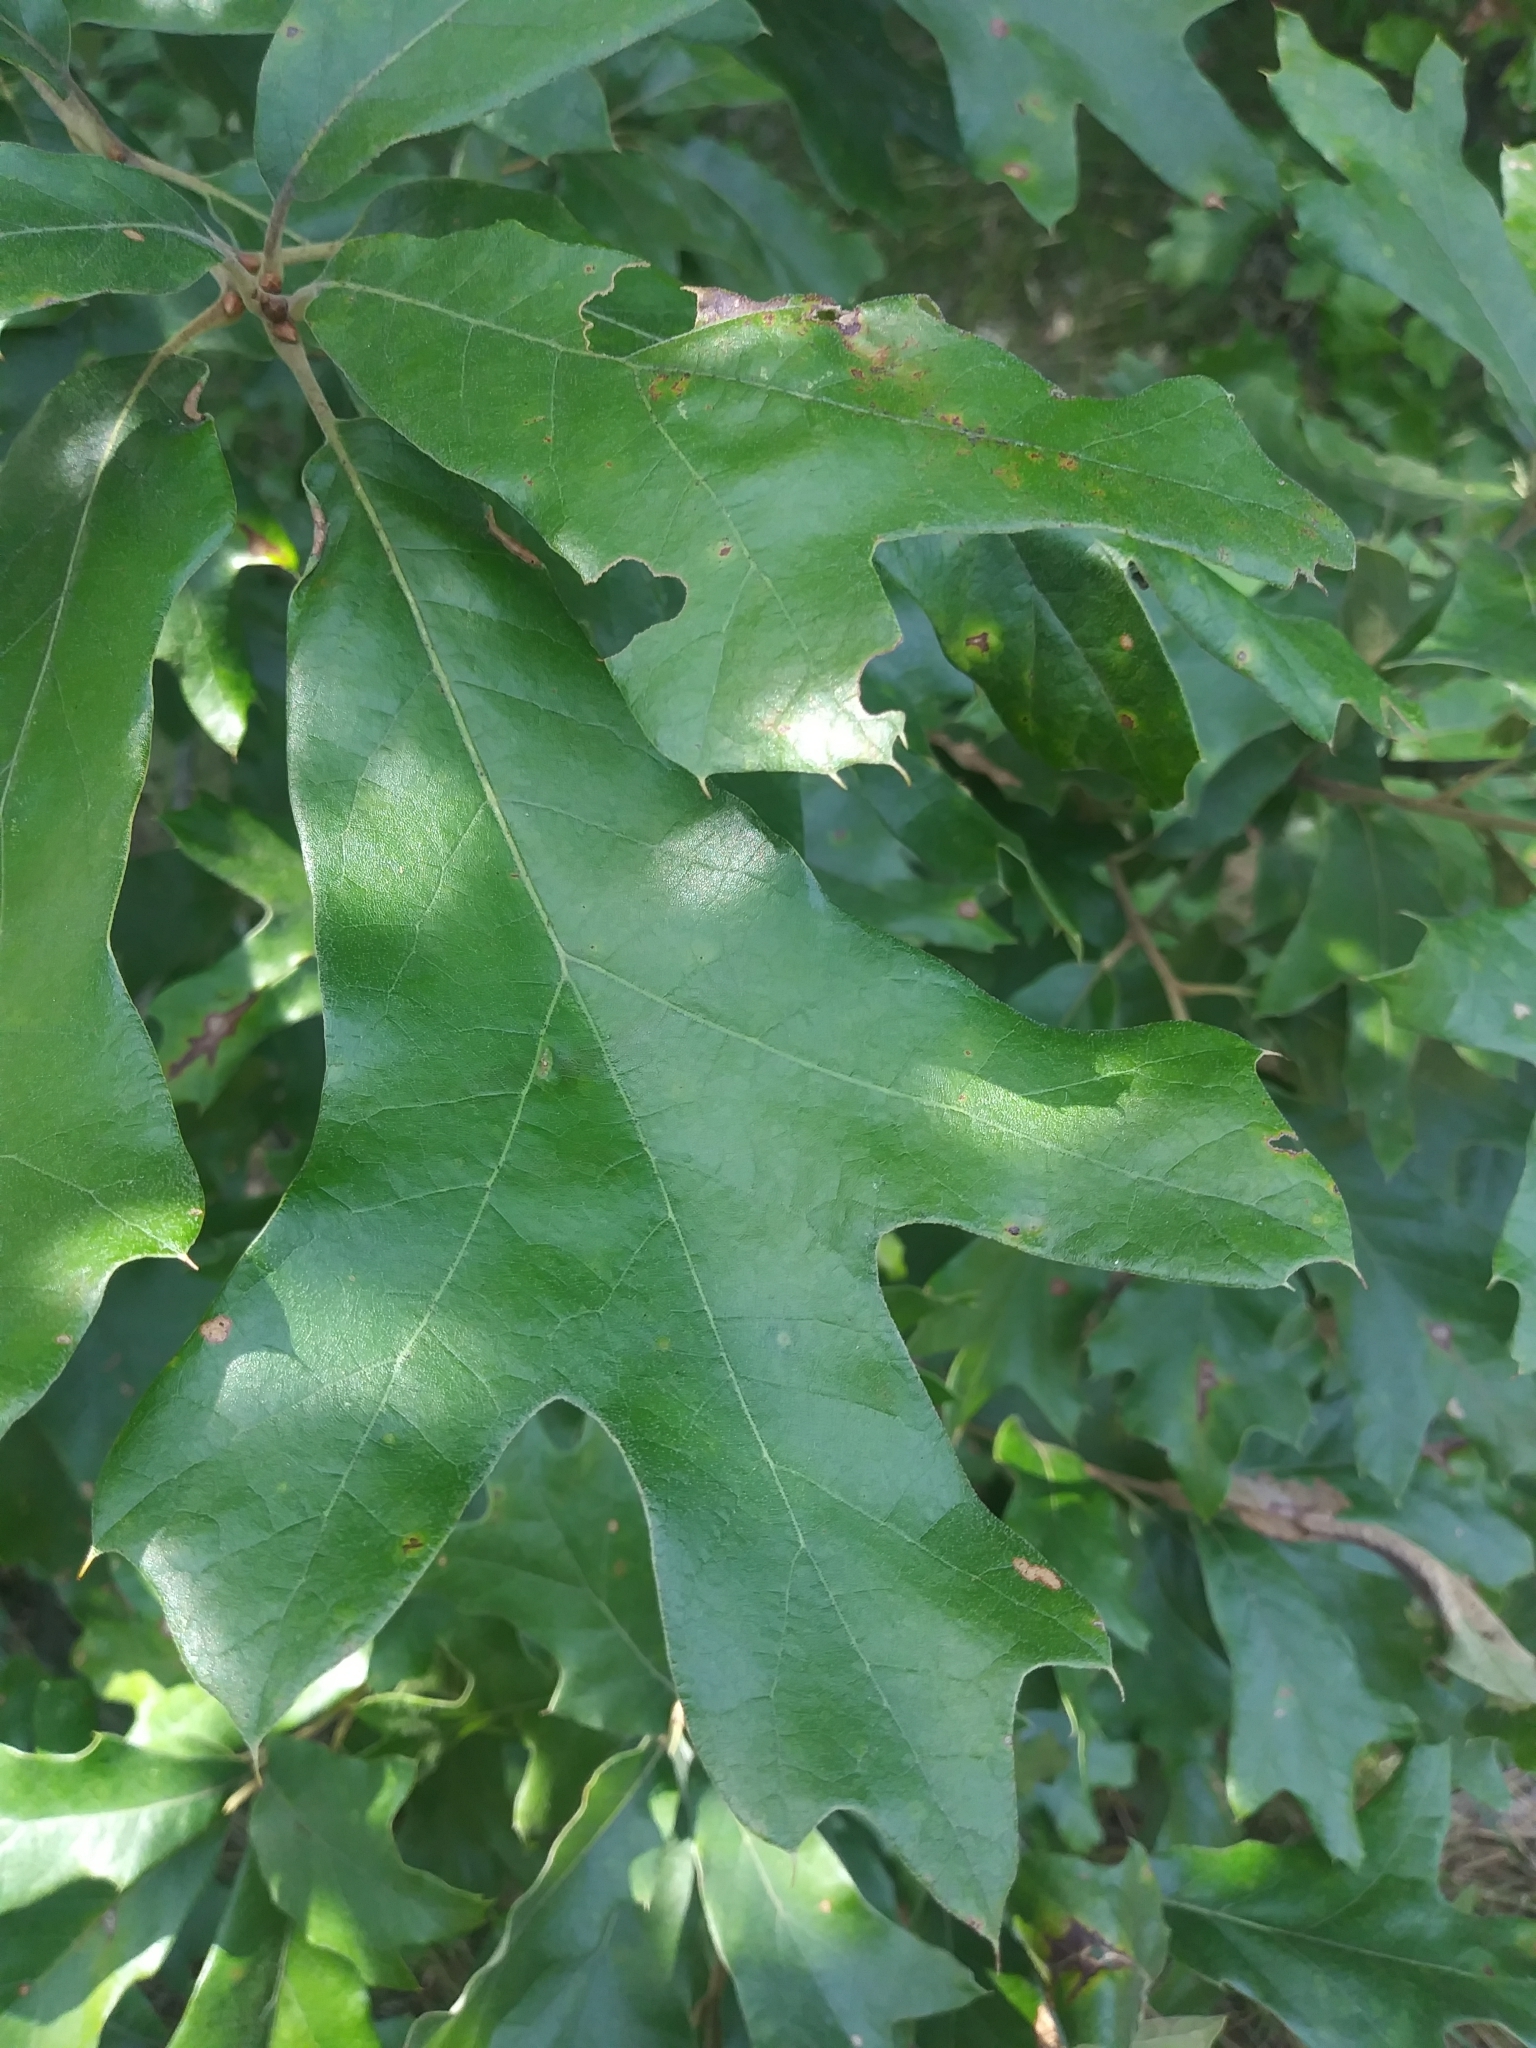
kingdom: Plantae
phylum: Tracheophyta
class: Magnoliopsida
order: Fagales
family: Fagaceae
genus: Quercus
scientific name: Quercus falcata
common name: Southern red oak
